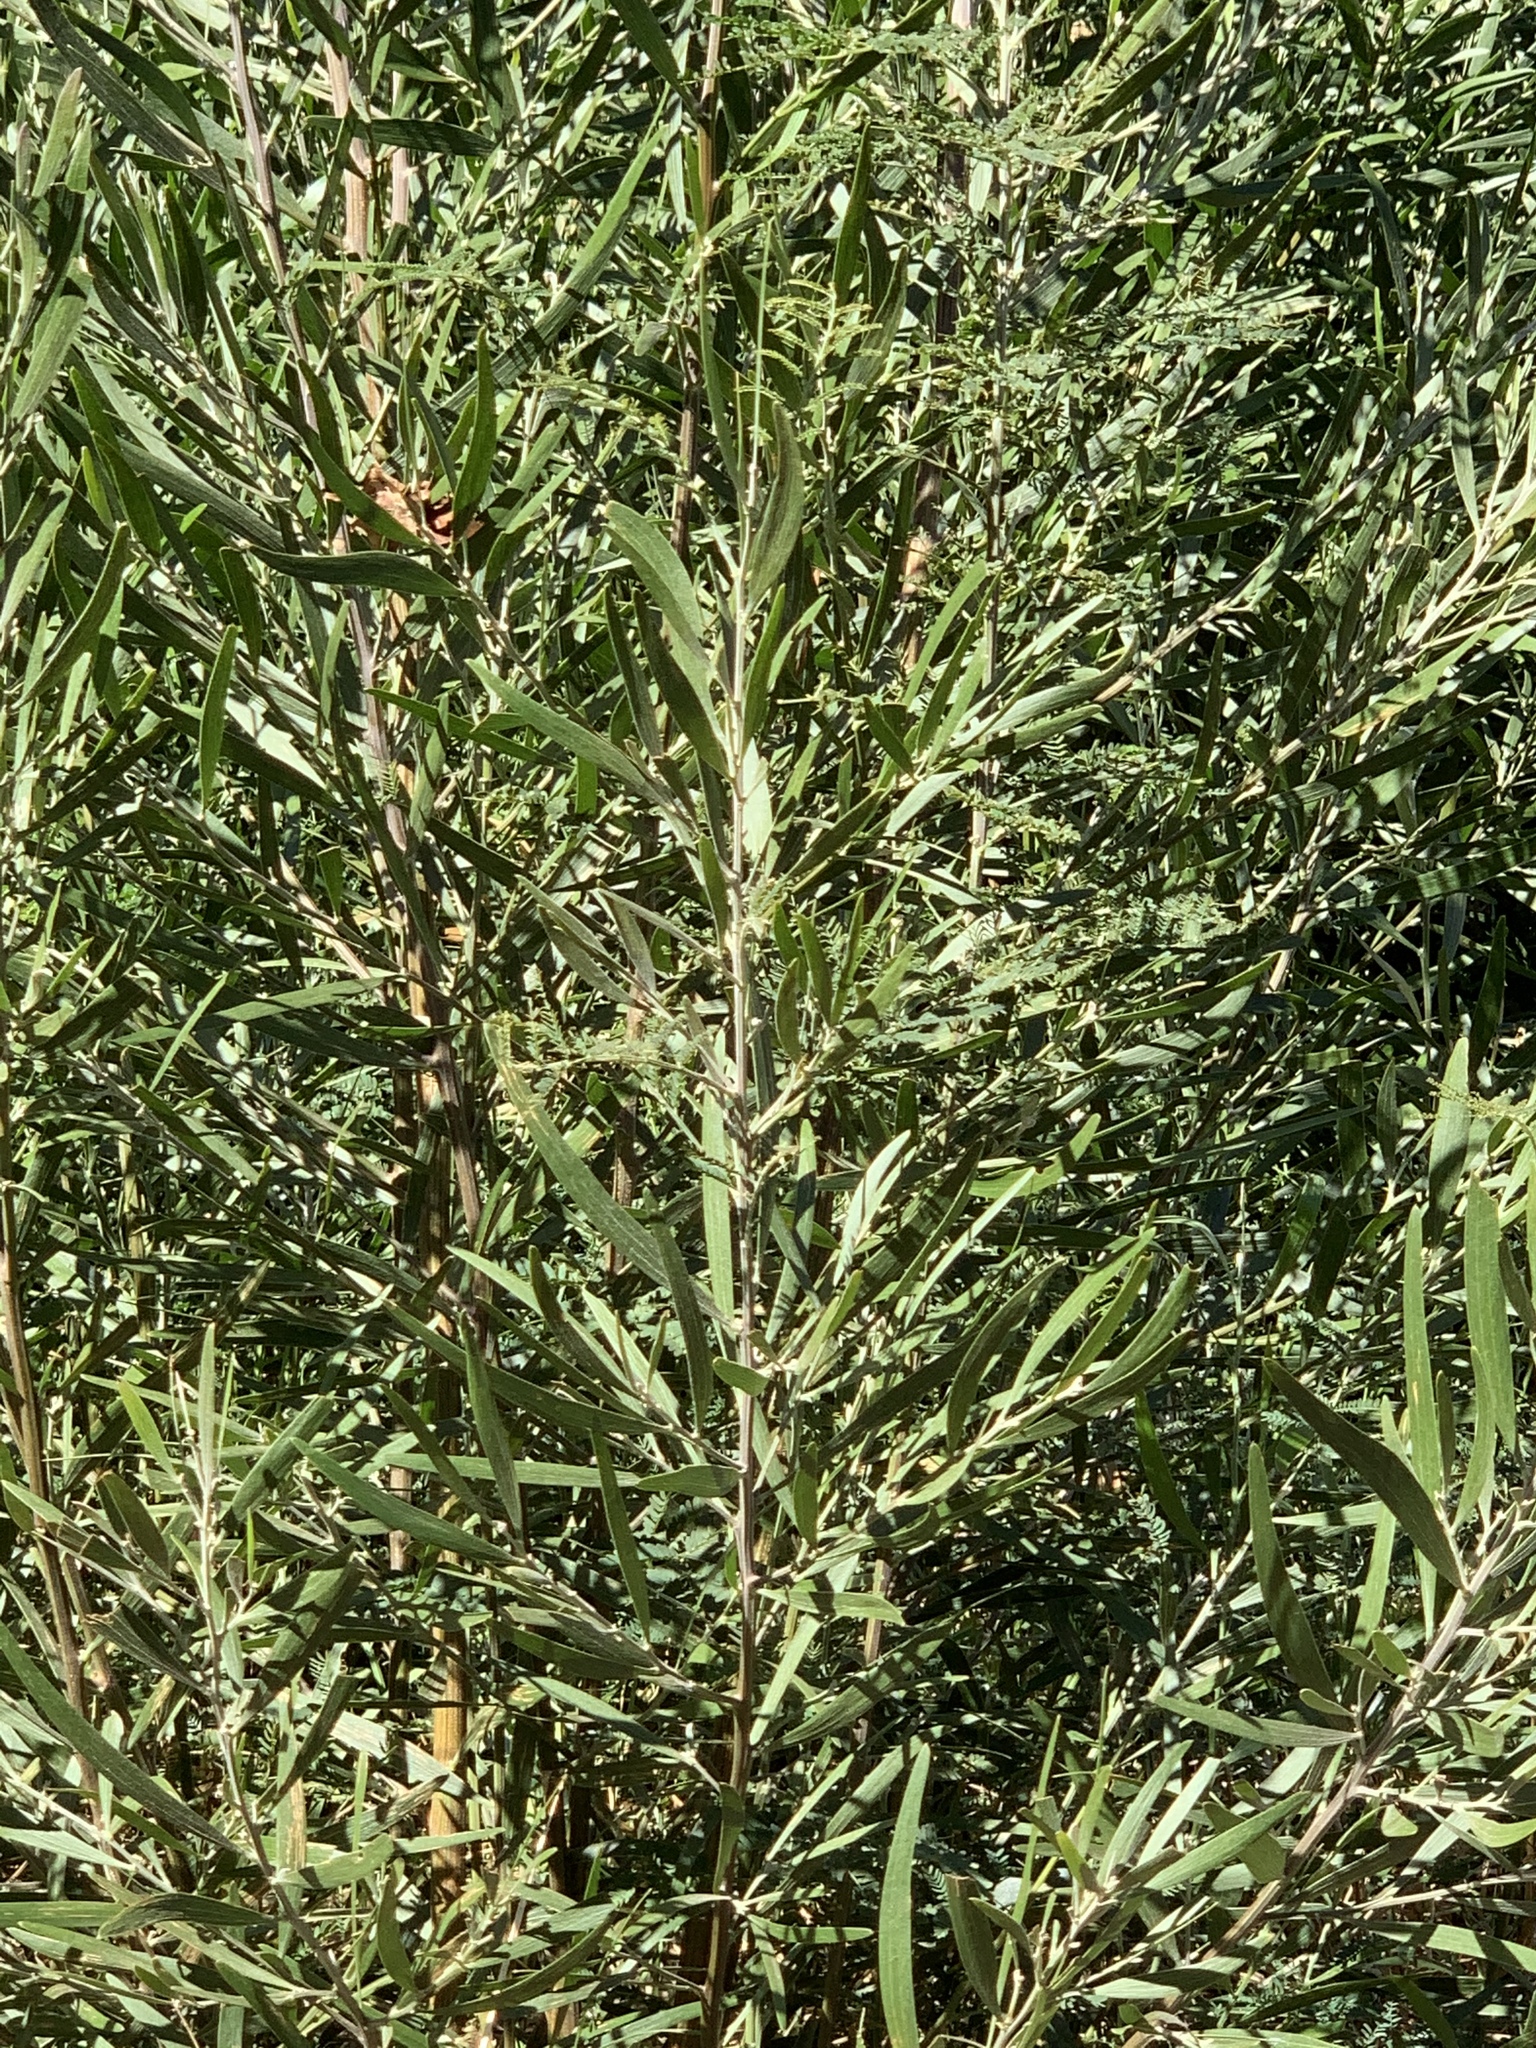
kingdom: Plantae
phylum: Tracheophyta
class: Magnoliopsida
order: Fabales
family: Fabaceae
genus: Acacia
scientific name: Acacia melanoxylon
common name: Blackwood
